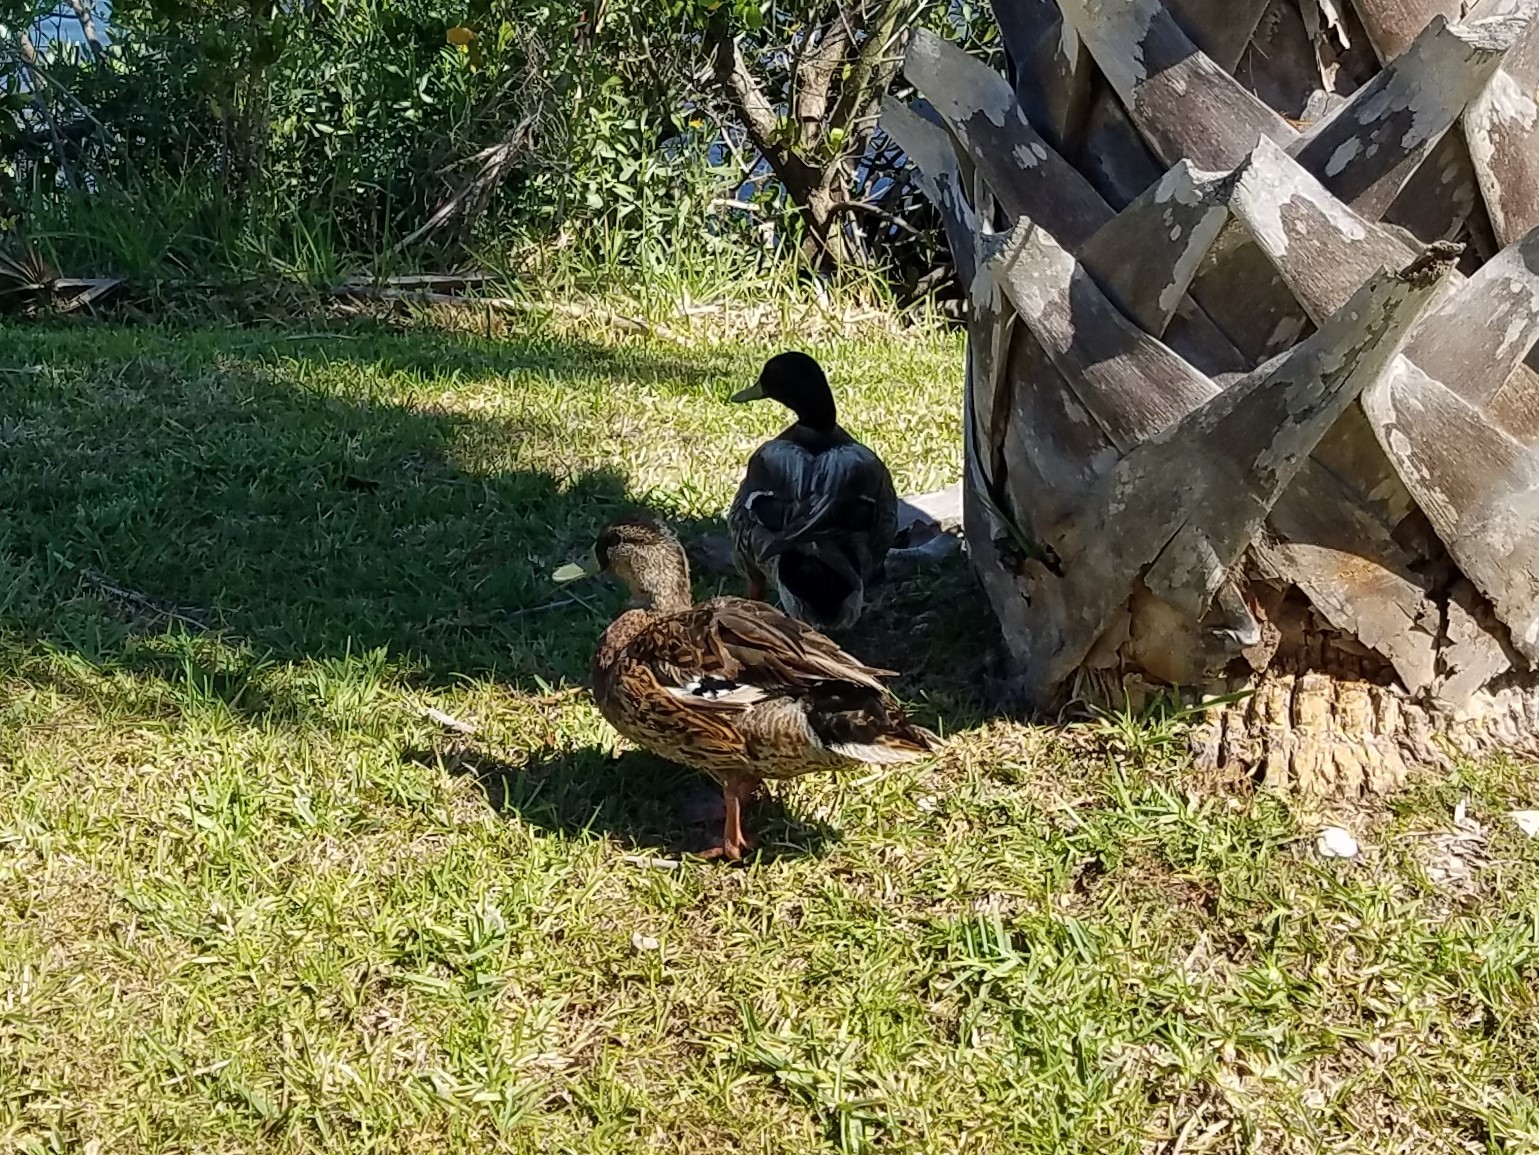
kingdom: Animalia
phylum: Chordata
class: Aves
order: Anseriformes
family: Anatidae
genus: Anas
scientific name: Anas platyrhynchos
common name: Mallard
